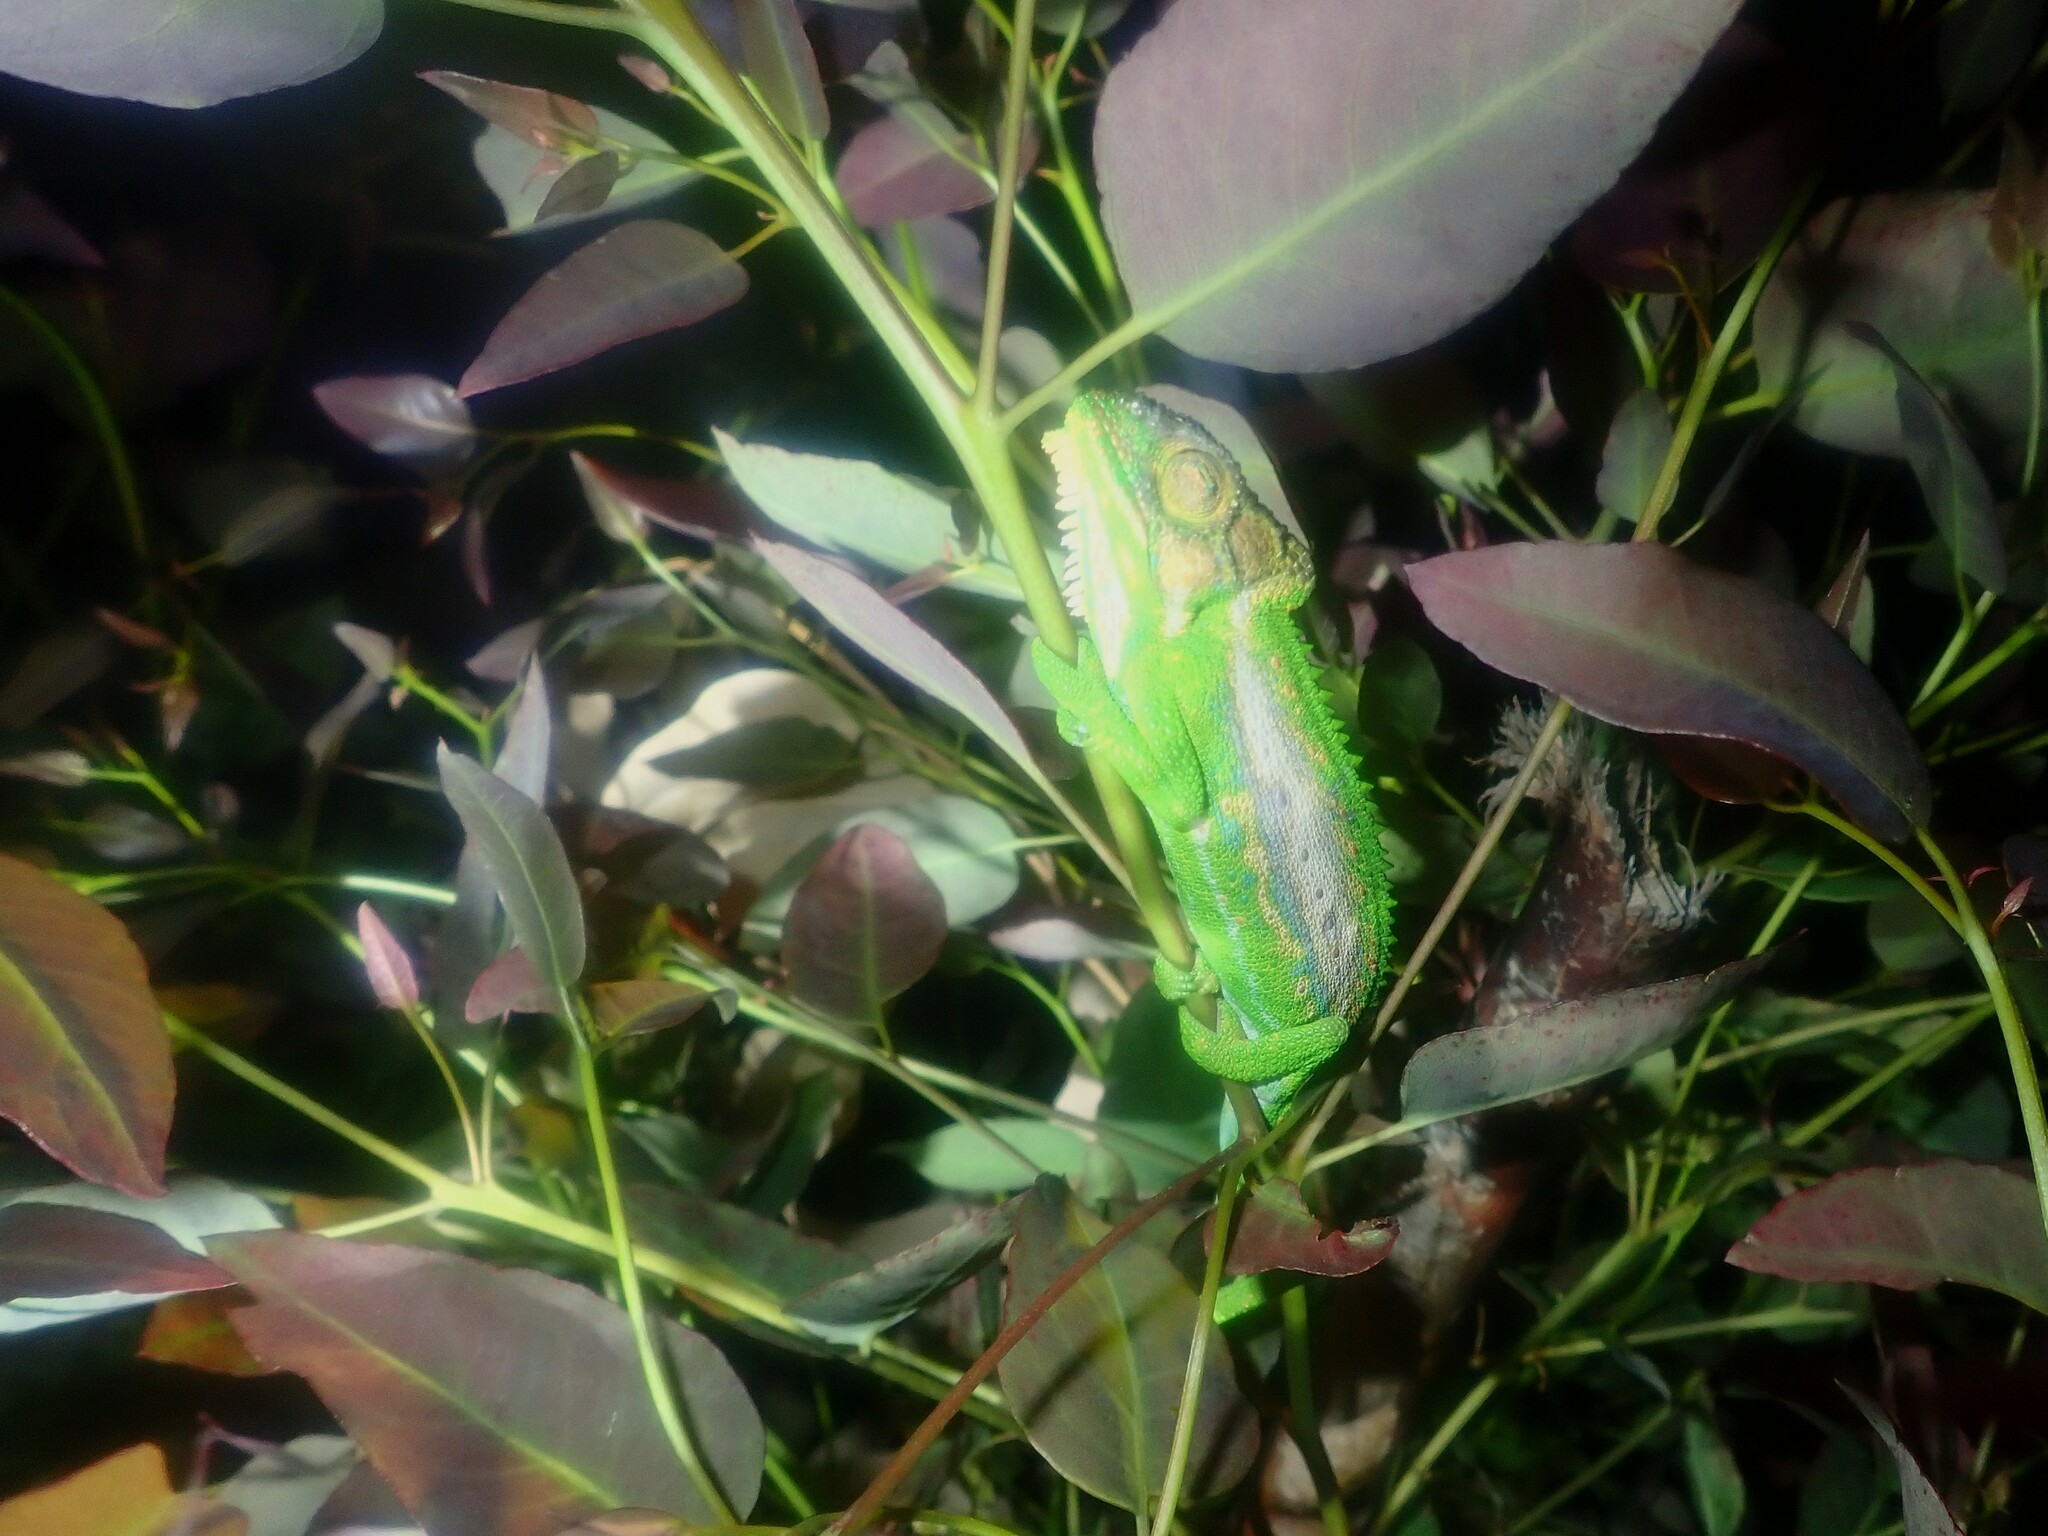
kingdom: Animalia
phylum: Chordata
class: Squamata
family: Chamaeleonidae
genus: Bradypodion
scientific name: Bradypodion pumilum
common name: Cape dwarf chameleon
